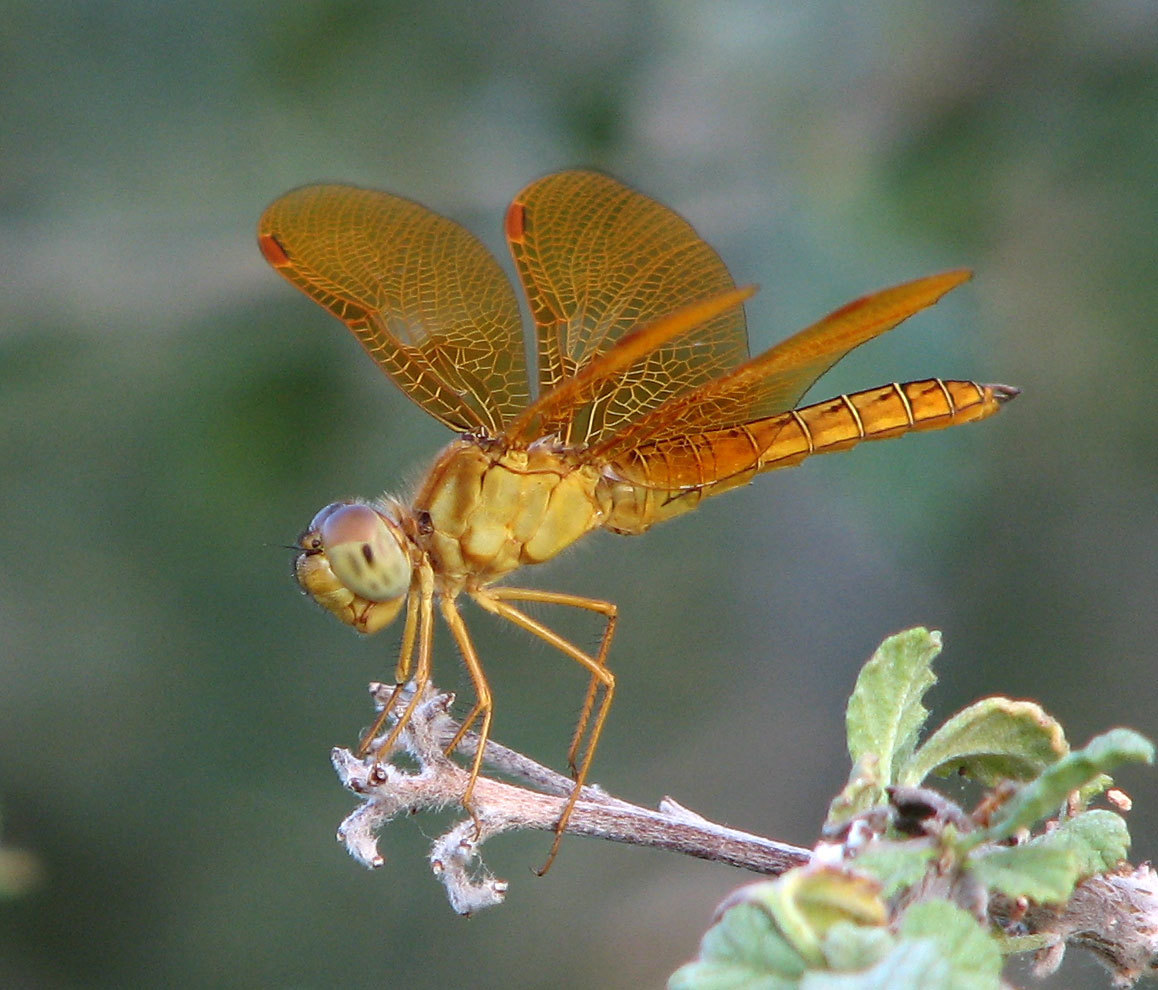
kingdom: Animalia
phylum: Arthropoda
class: Insecta
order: Odonata
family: Libellulidae
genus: Perithemis
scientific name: Perithemis intensa
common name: Mexican amberwing
